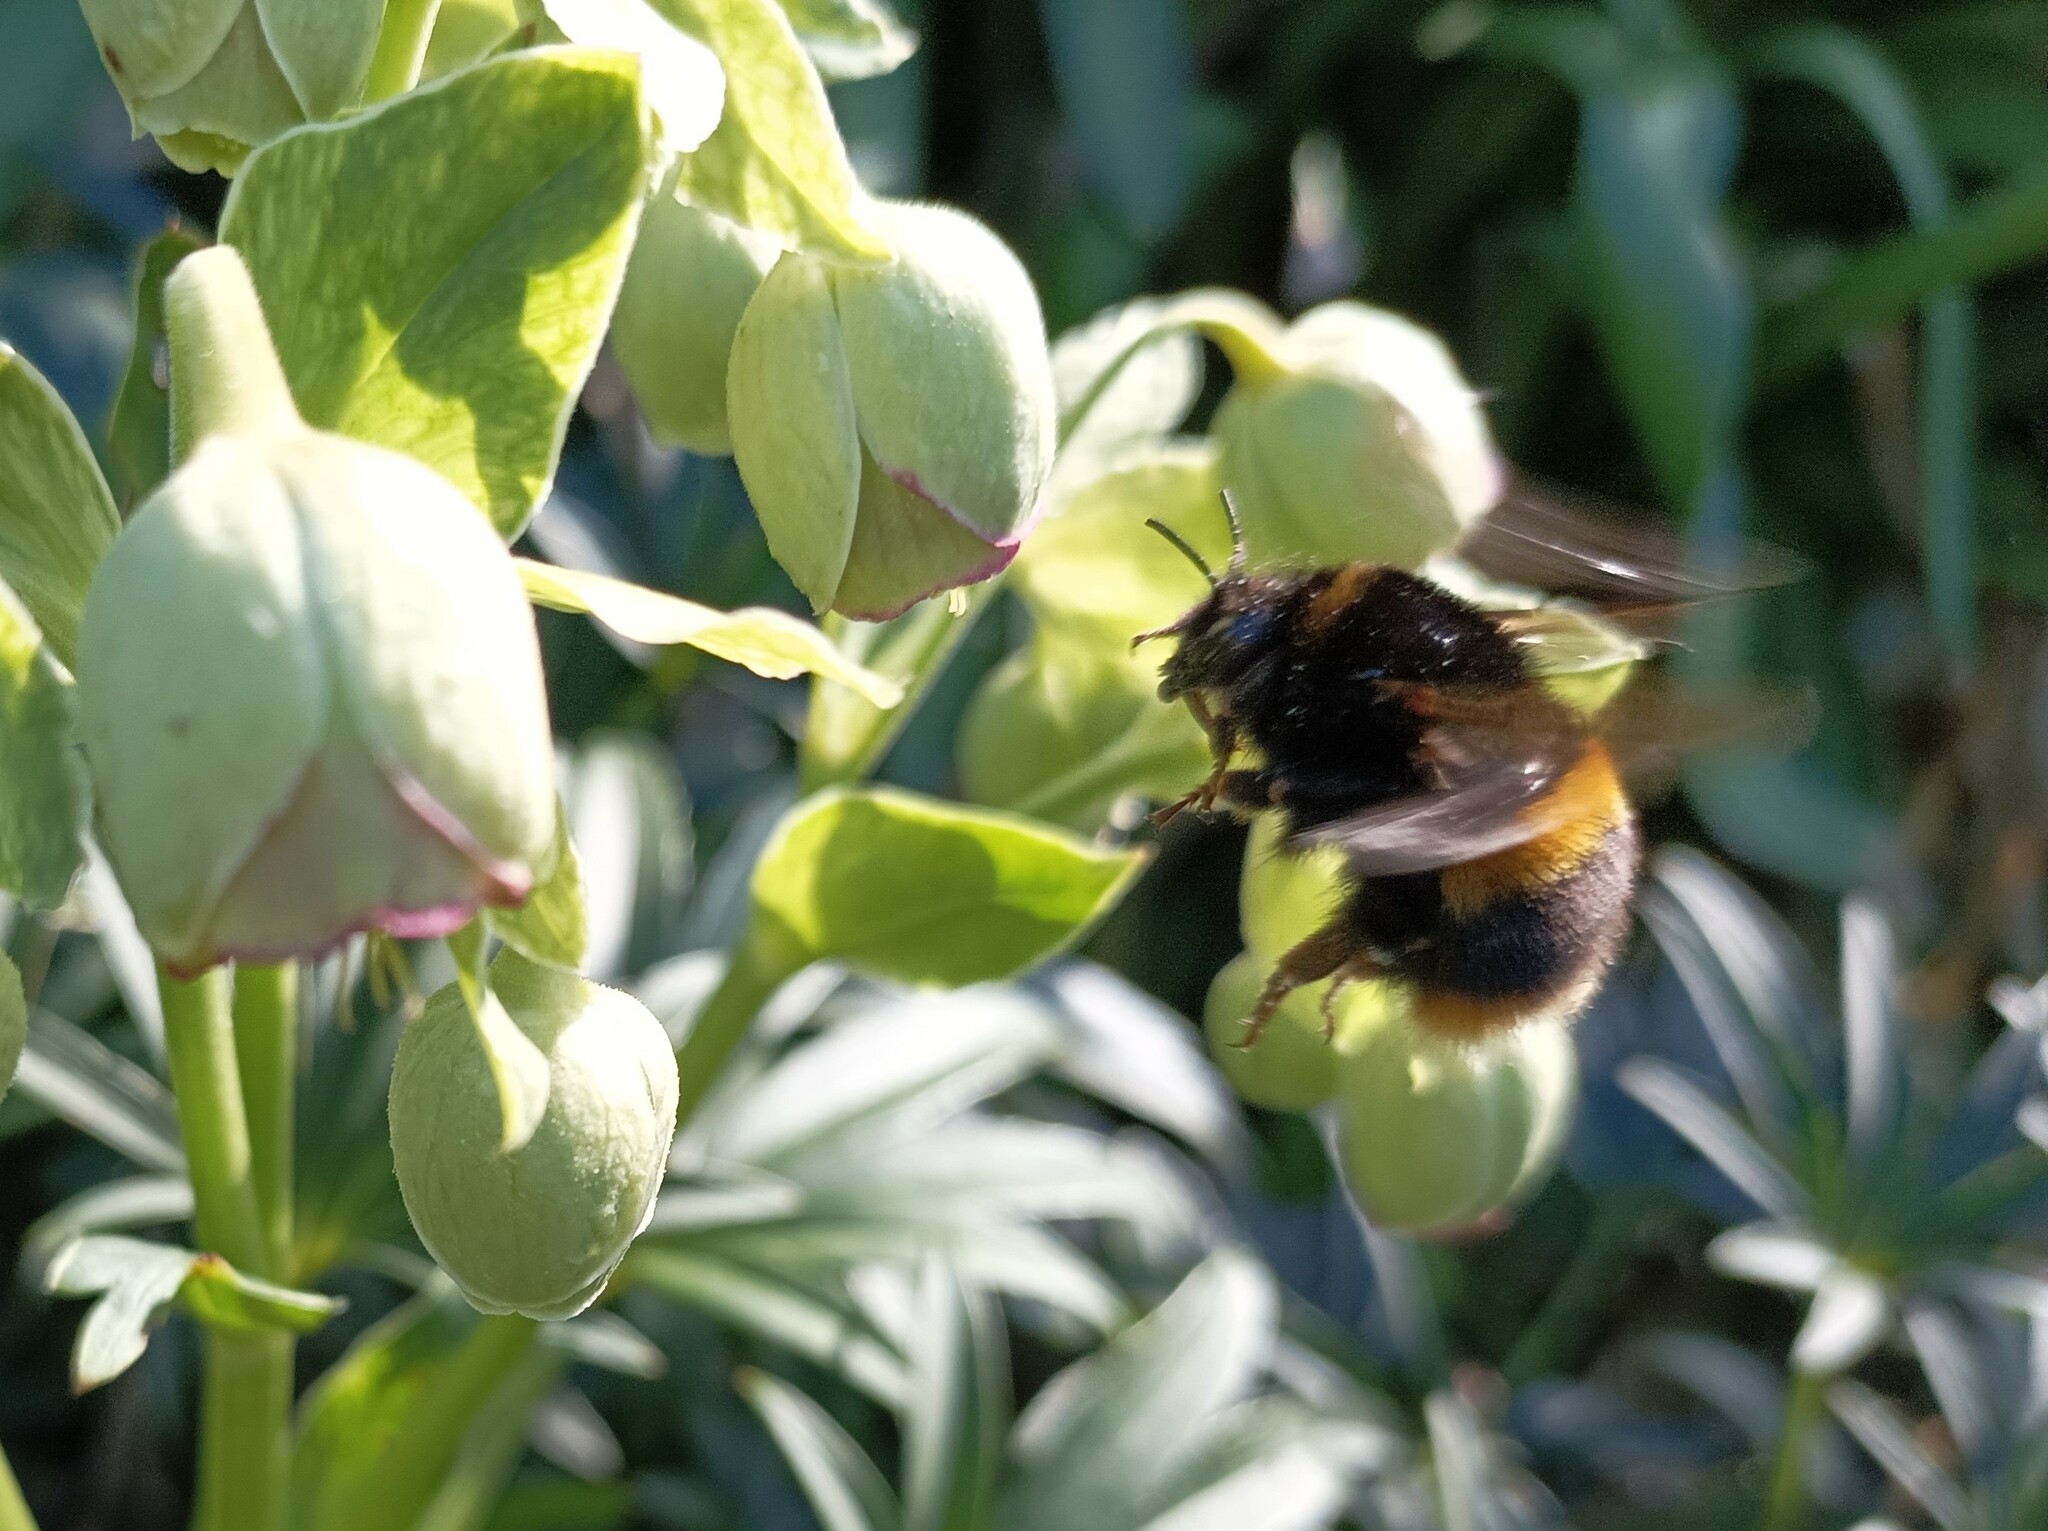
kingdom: Animalia
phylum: Arthropoda
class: Insecta
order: Hymenoptera
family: Apidae
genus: Bombus
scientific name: Bombus terrestris
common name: Buff-tailed bumblebee
